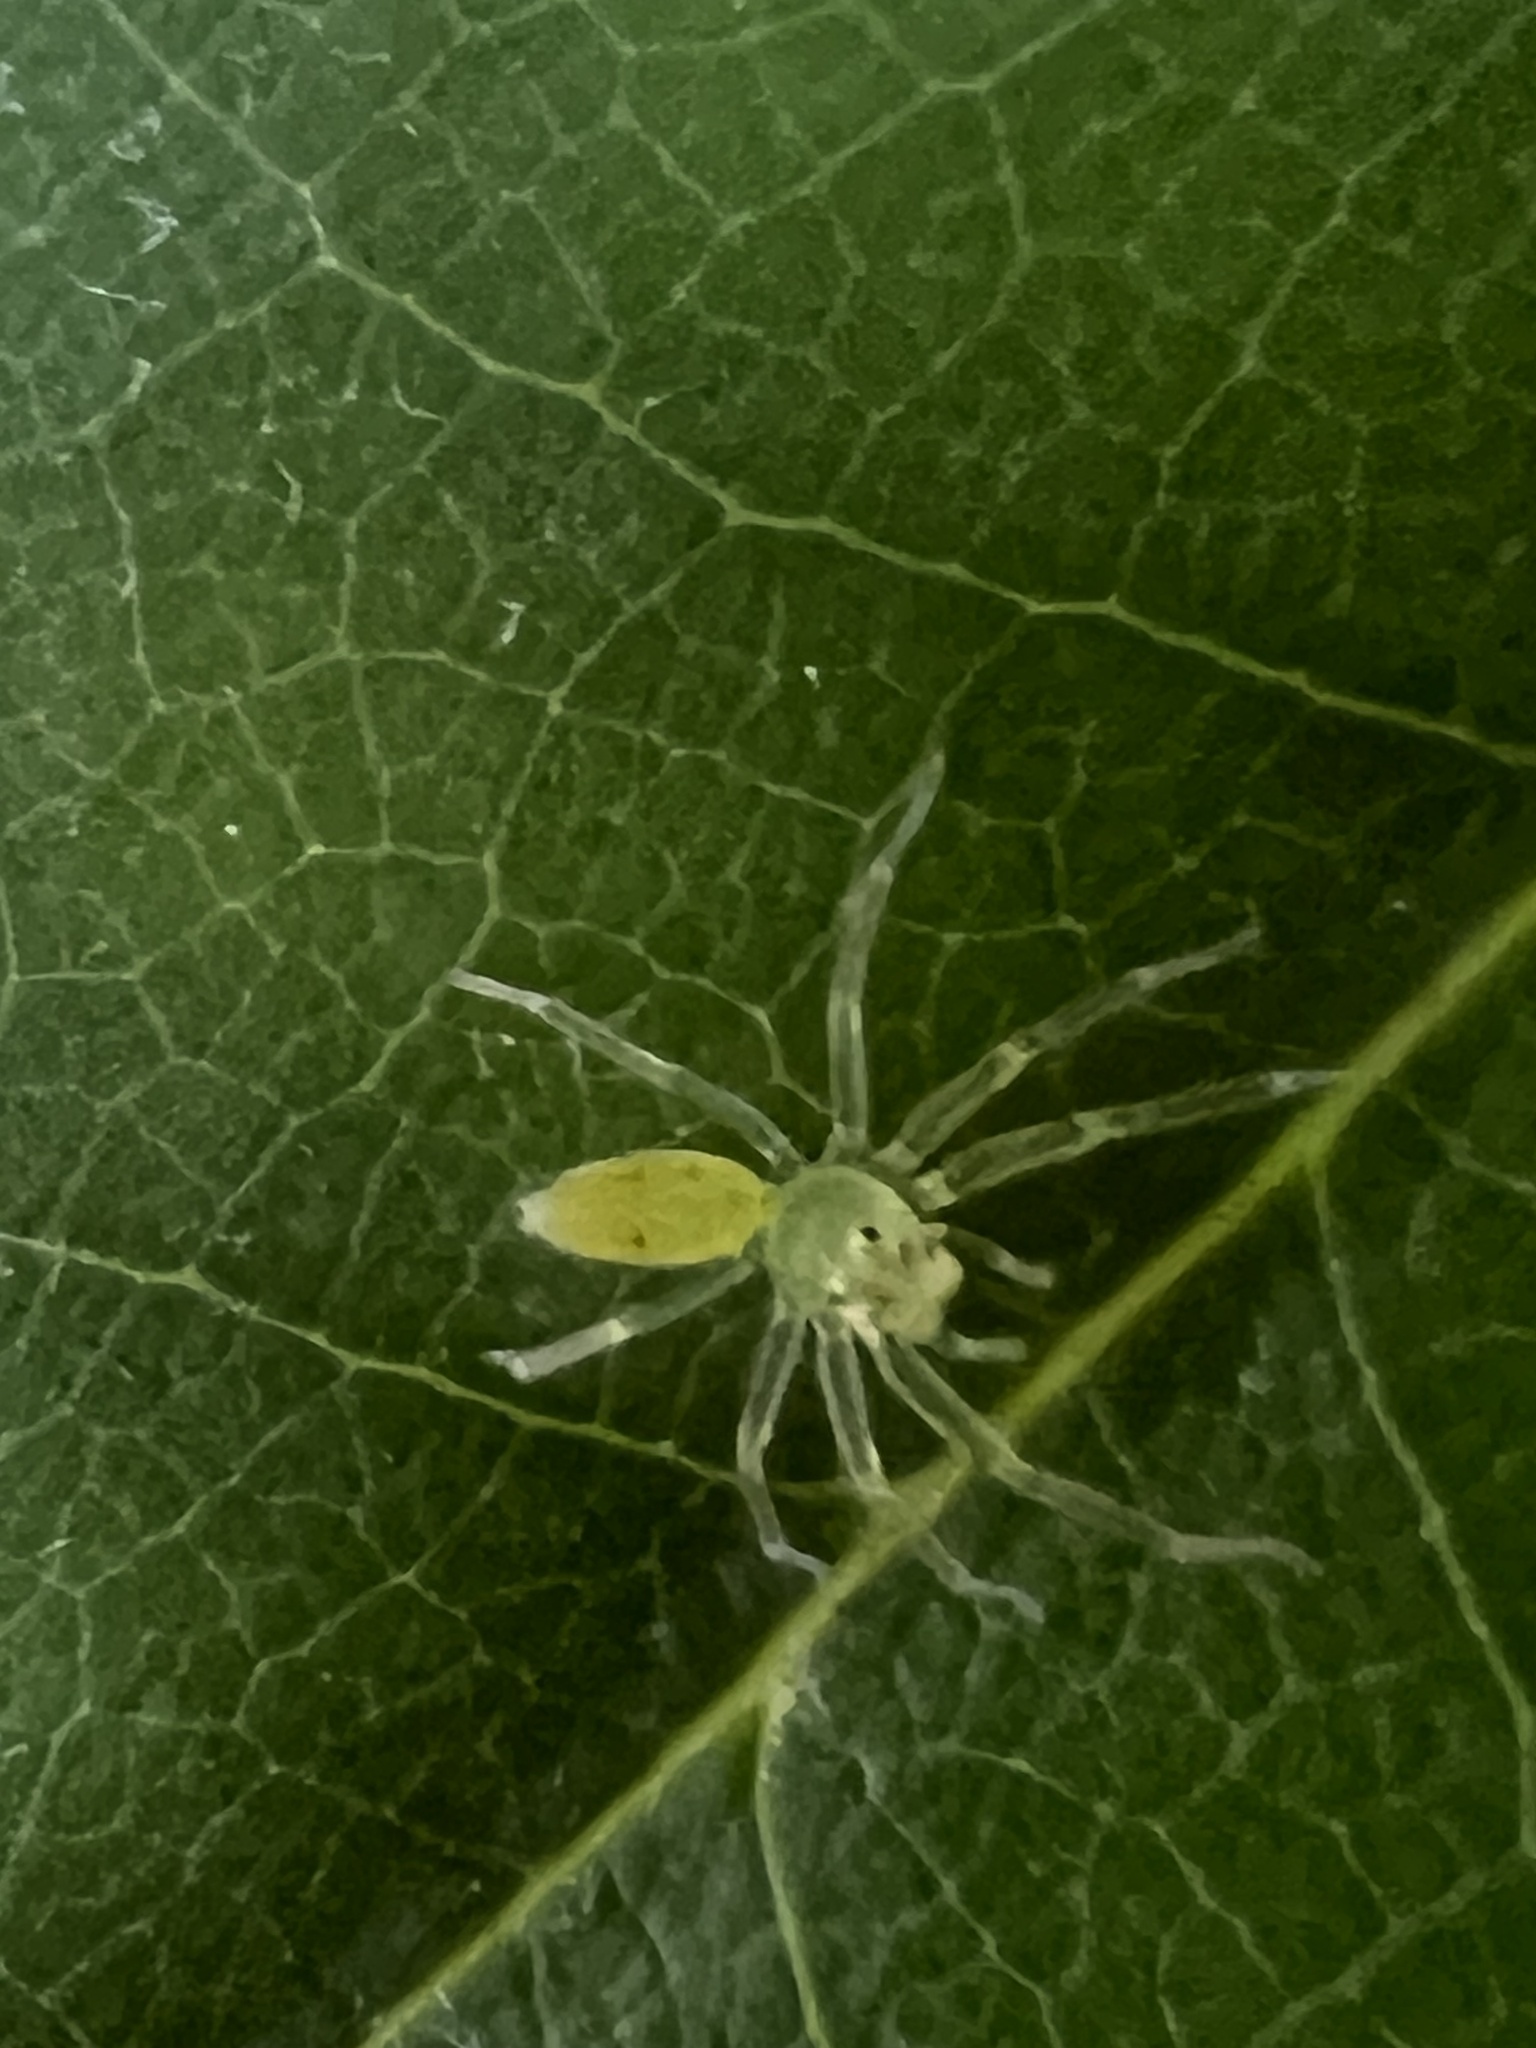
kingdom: Animalia
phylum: Arthropoda
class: Arachnida
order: Araneae
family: Salticidae
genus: Lyssomanes
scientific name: Lyssomanes viridis
